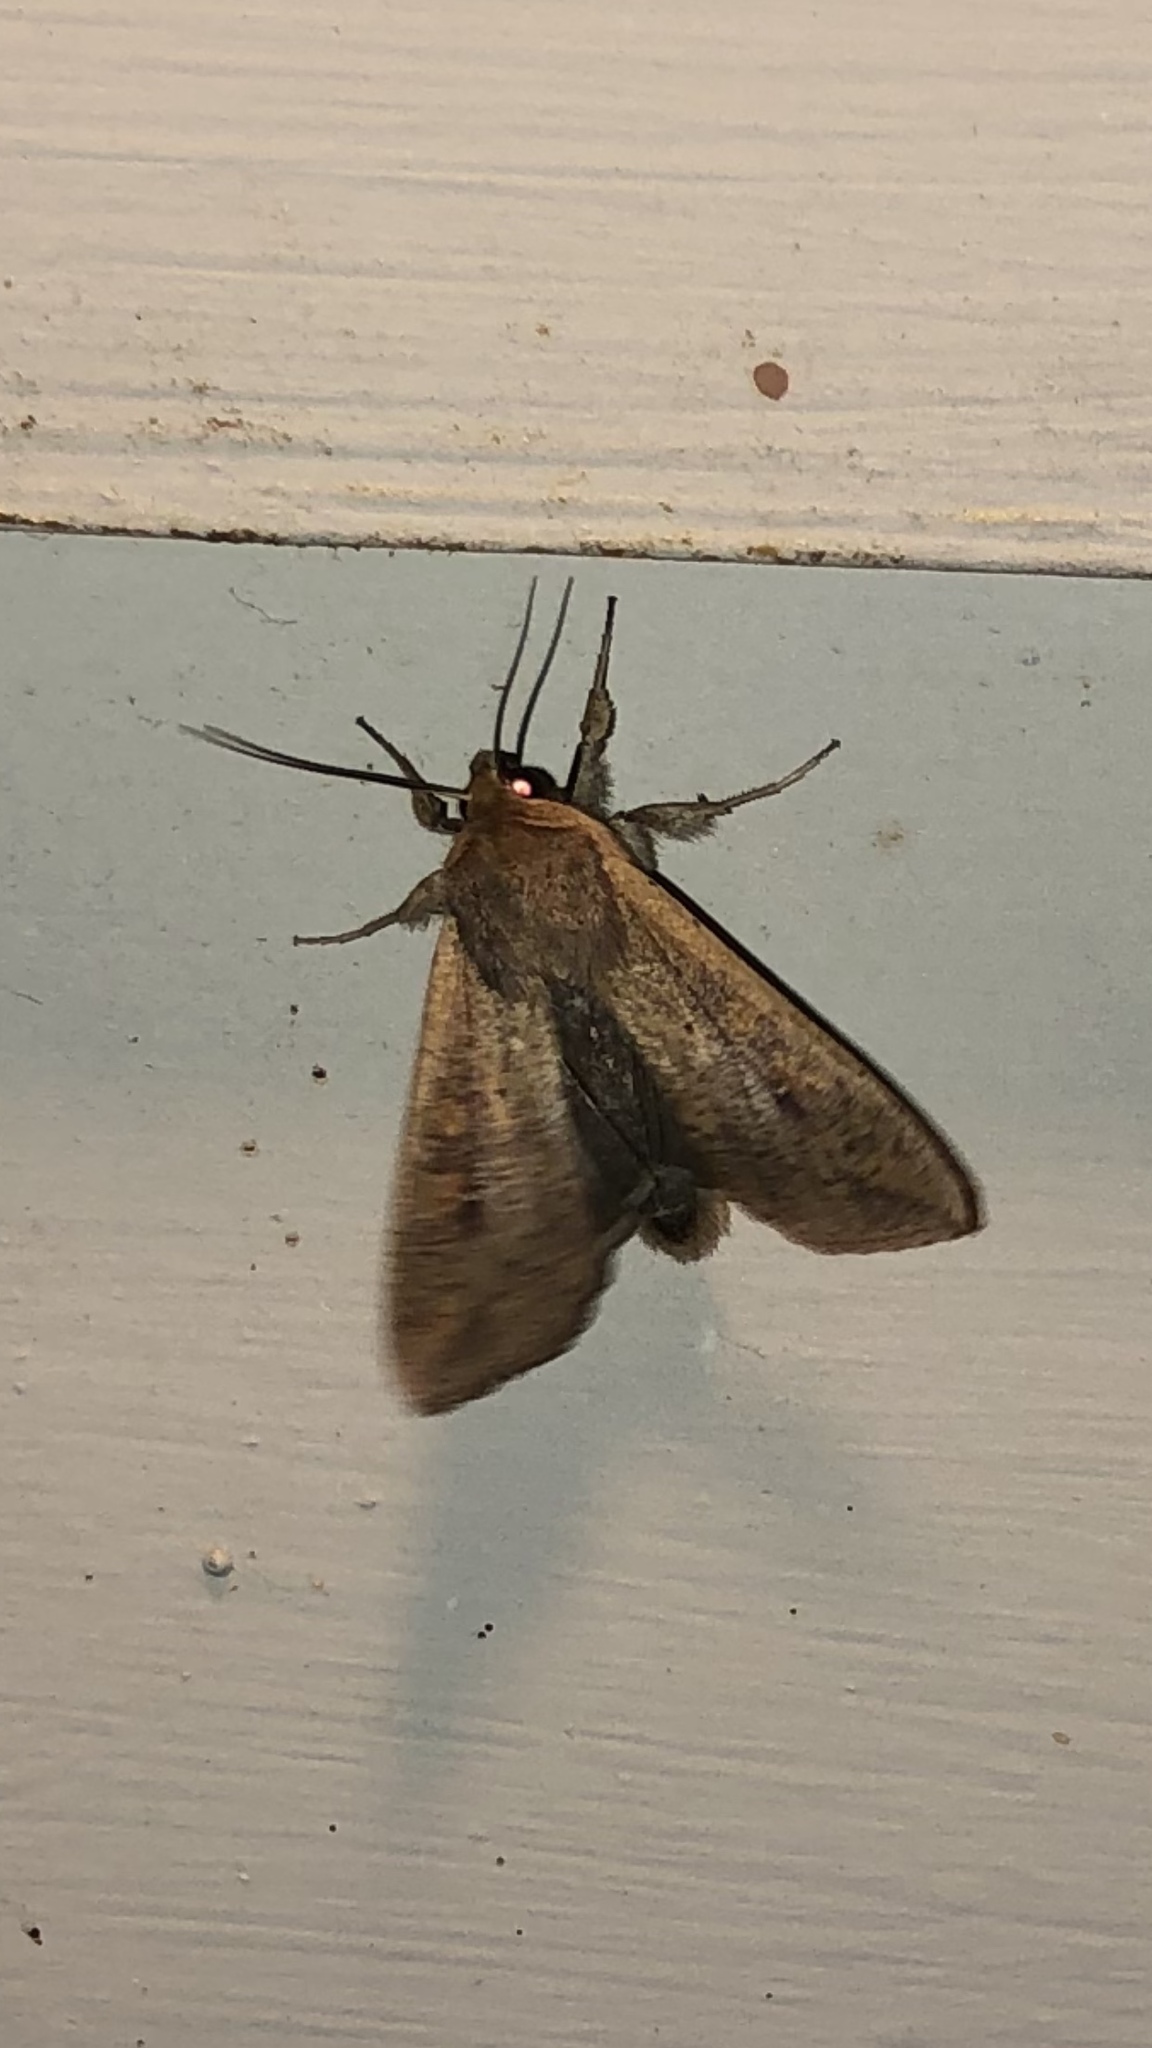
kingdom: Animalia
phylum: Arthropoda
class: Insecta
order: Lepidoptera
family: Noctuidae
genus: Mythimna
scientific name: Mythimna unipuncta
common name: White-speck
